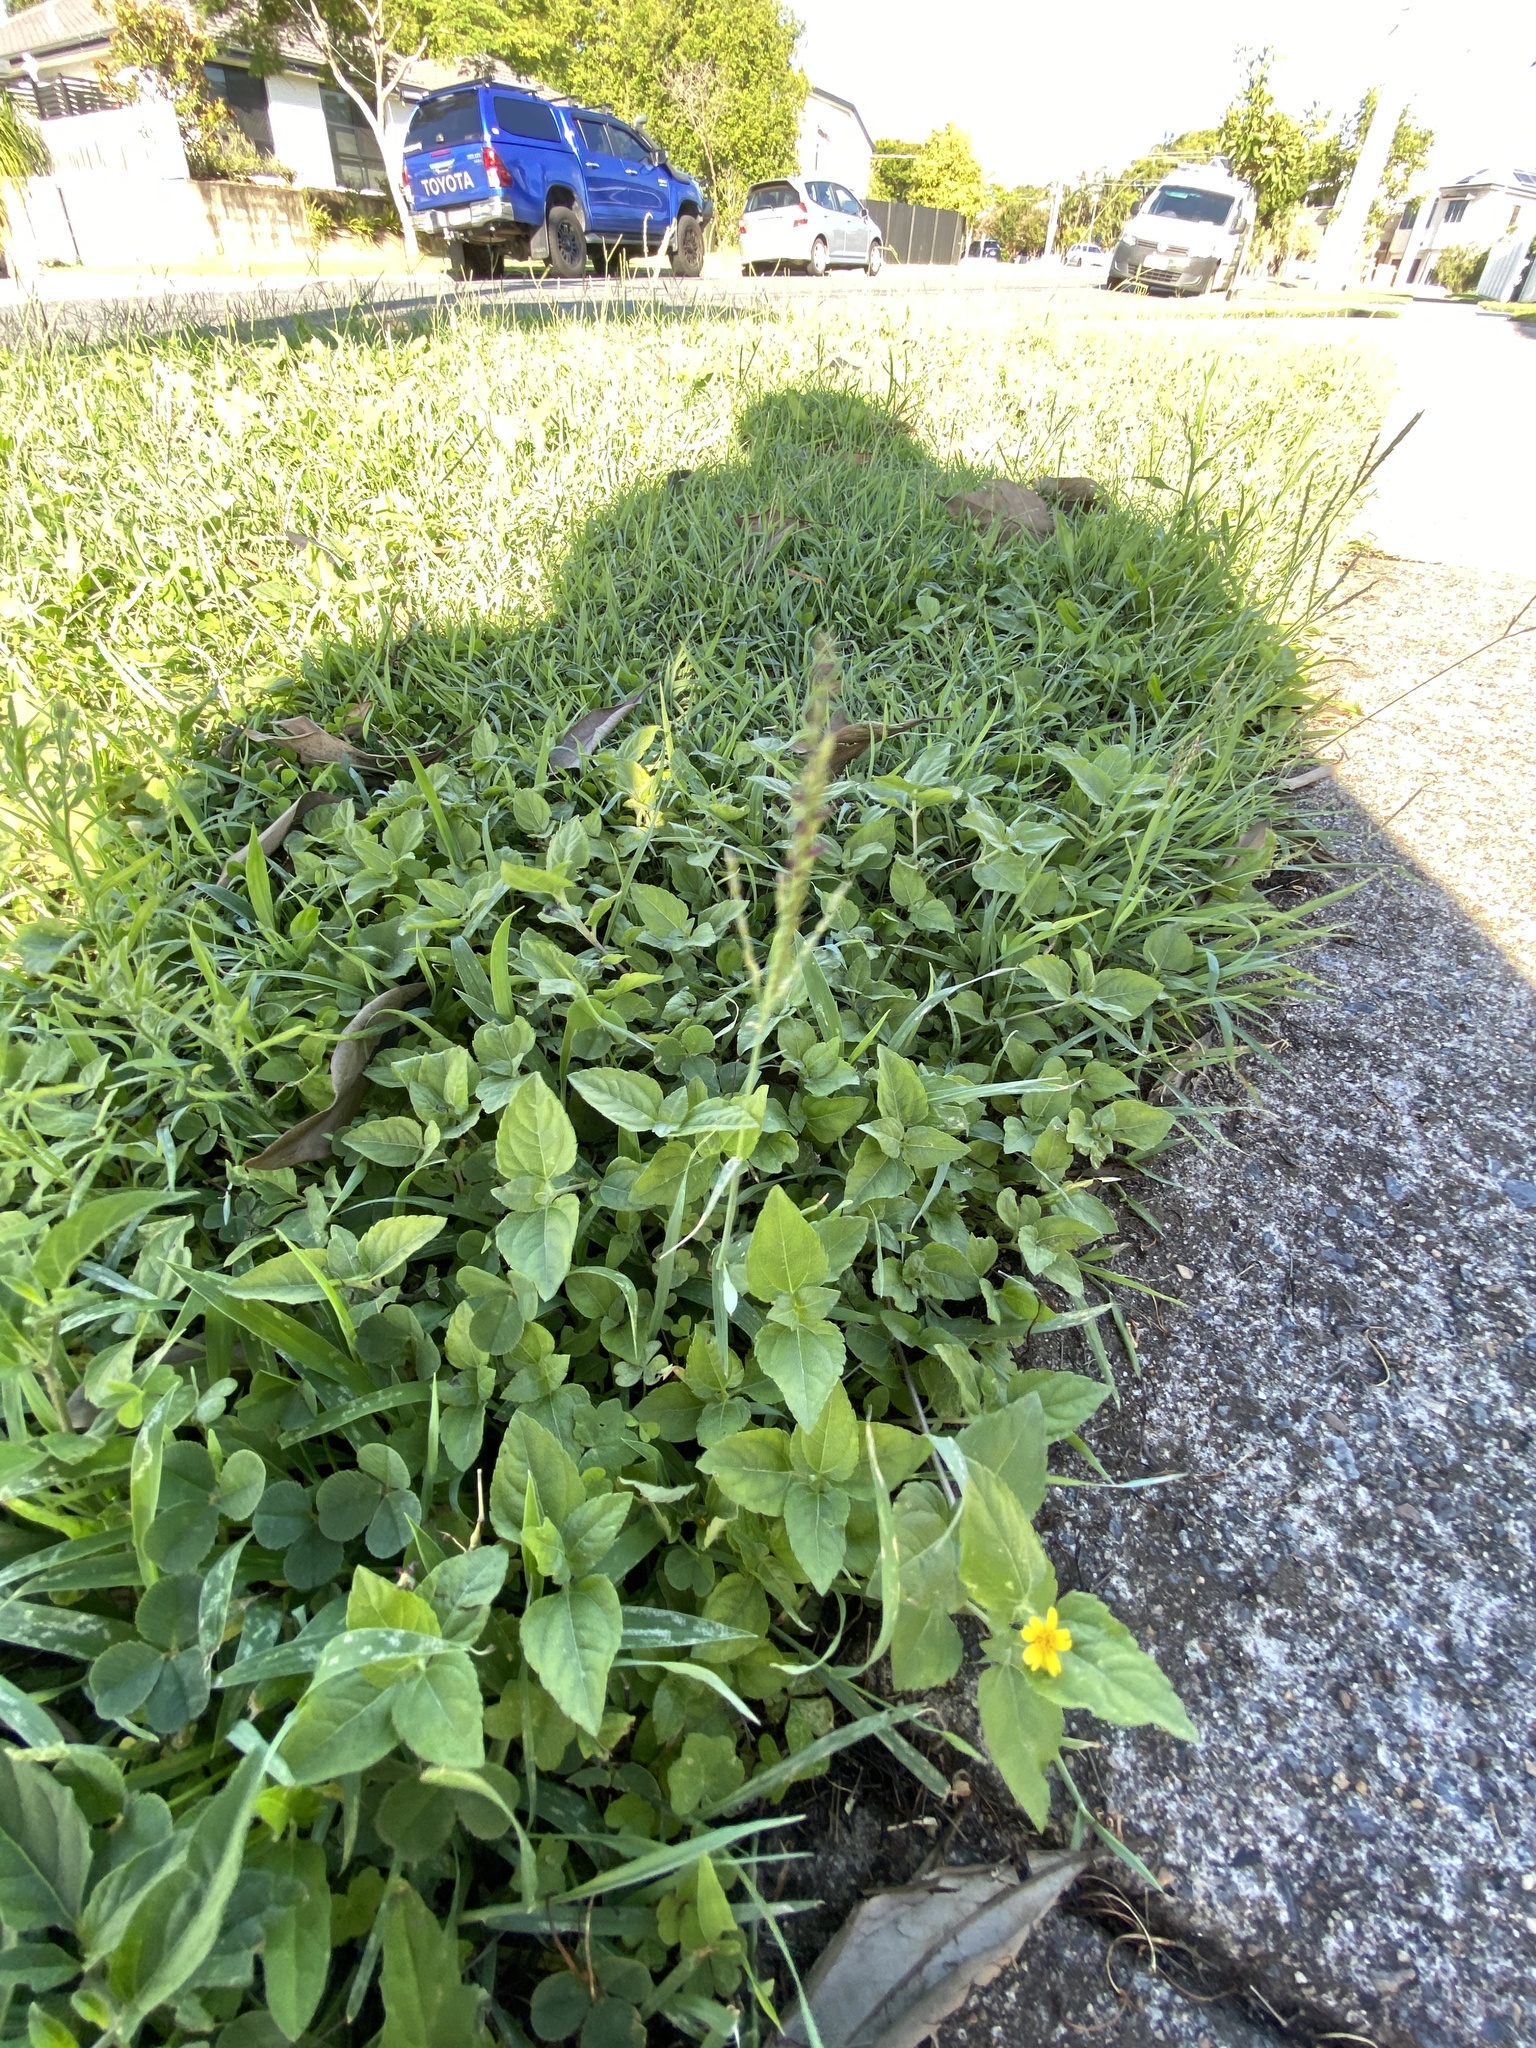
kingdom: Plantae
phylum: Tracheophyta
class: Magnoliopsida
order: Asterales
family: Asteraceae
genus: Calyptocarpus
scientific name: Calyptocarpus vialis
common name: Straggler daisy
